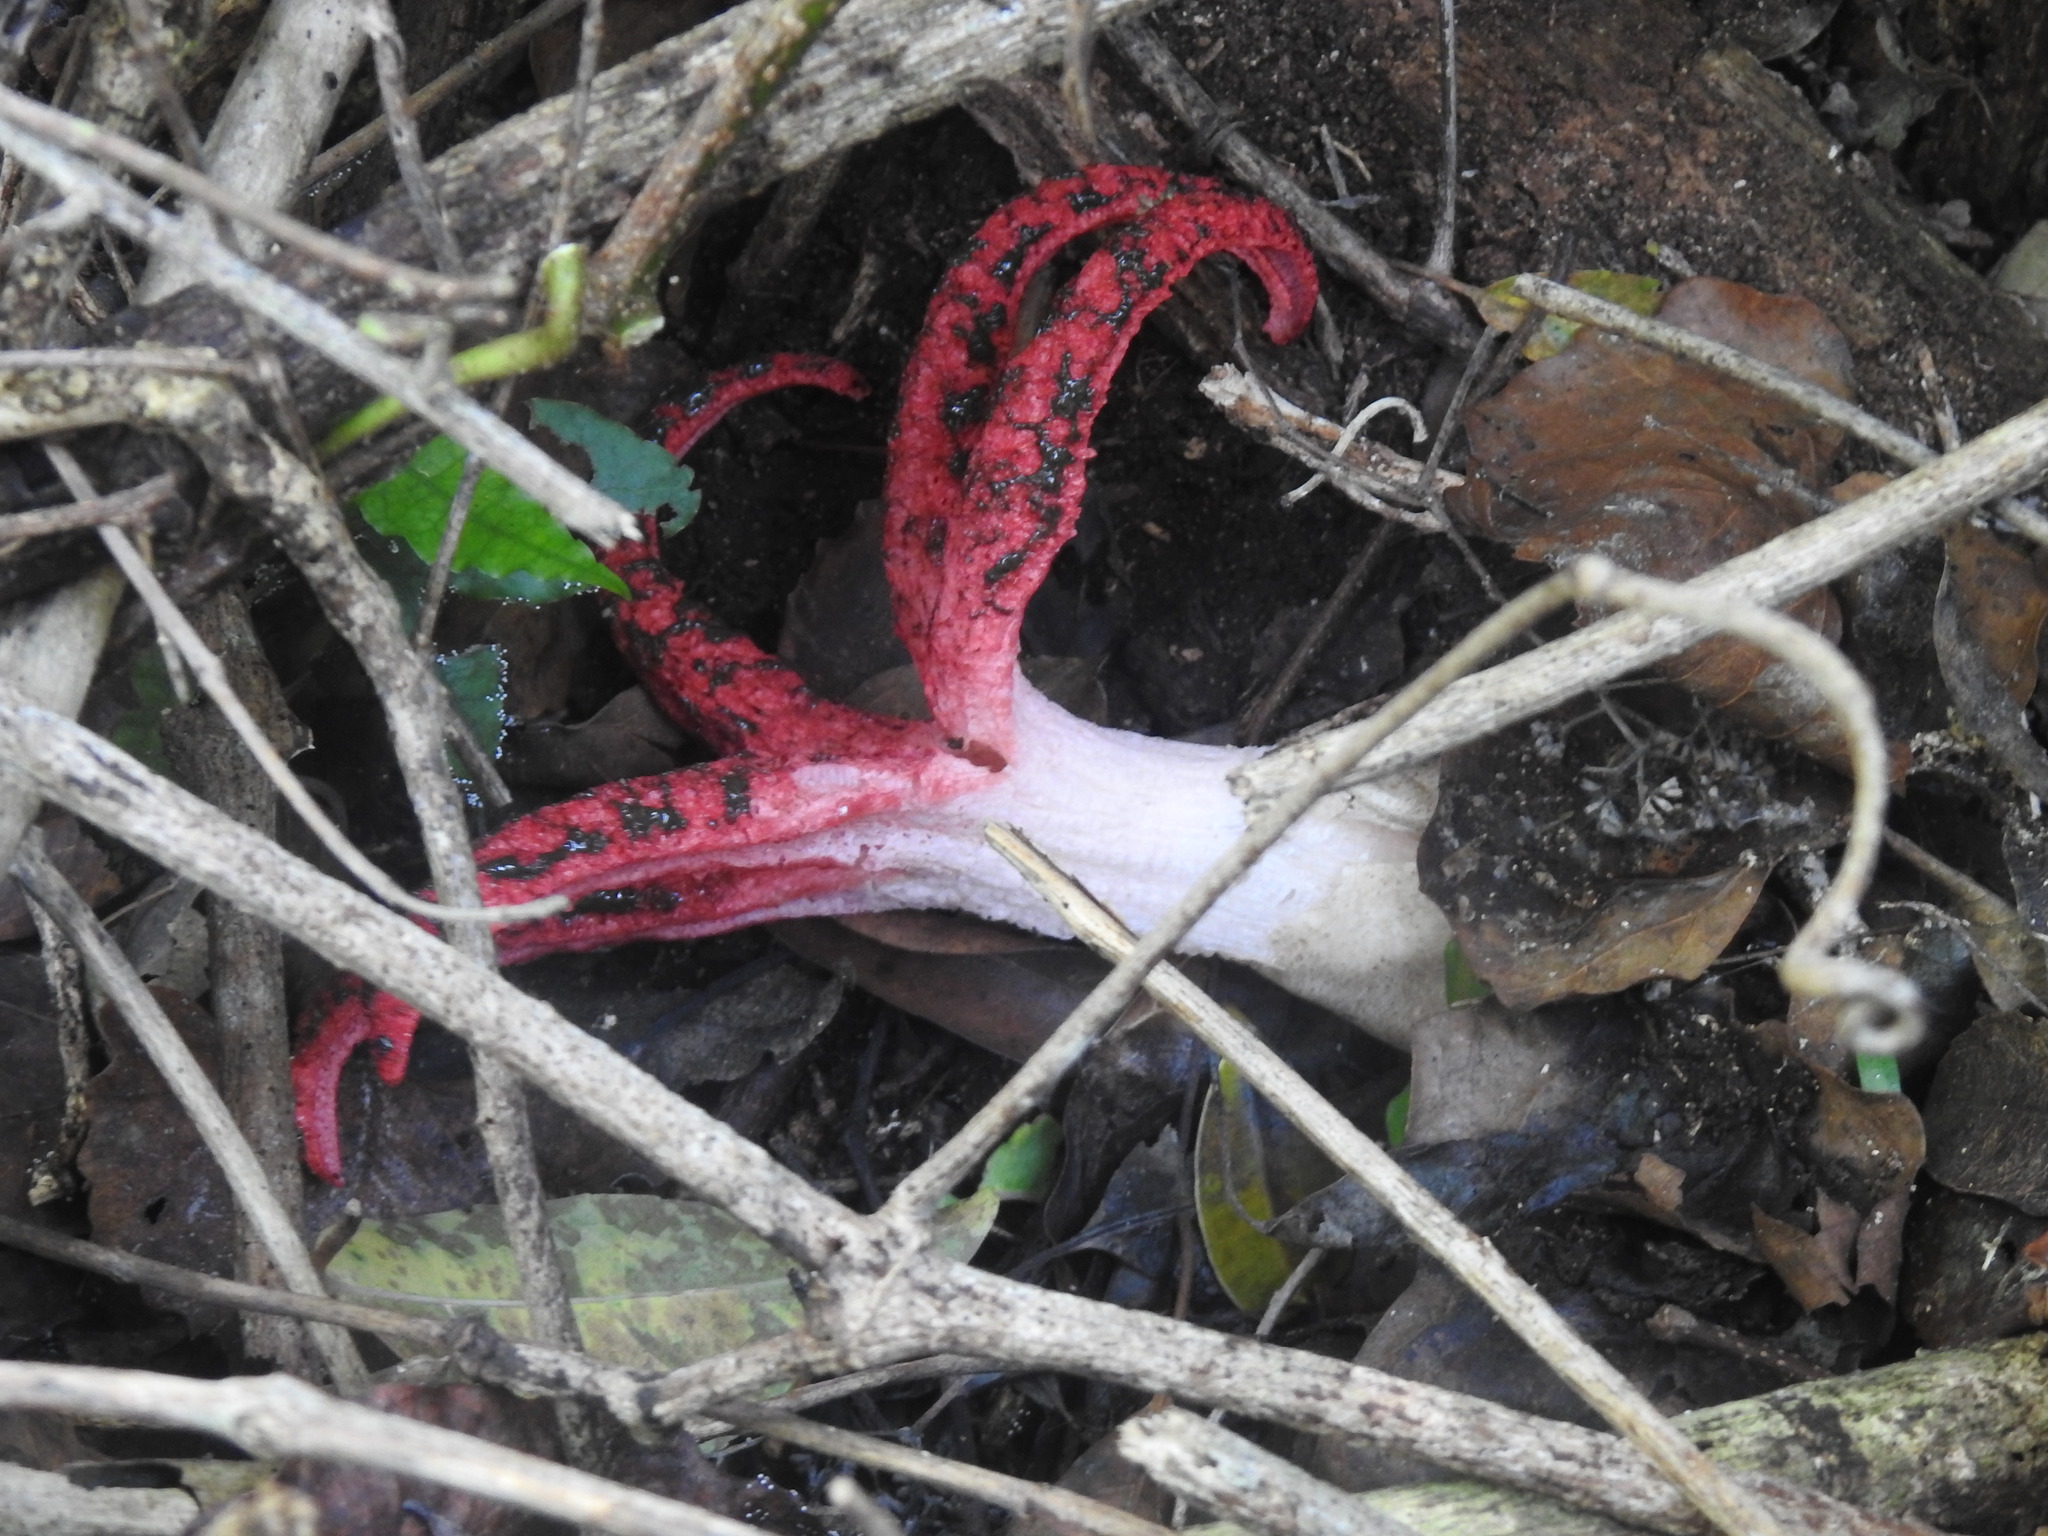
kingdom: Fungi
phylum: Basidiomycota
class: Agaricomycetes
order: Phallales
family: Phallaceae
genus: Clathrus
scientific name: Clathrus archeri
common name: Devil's fingers
